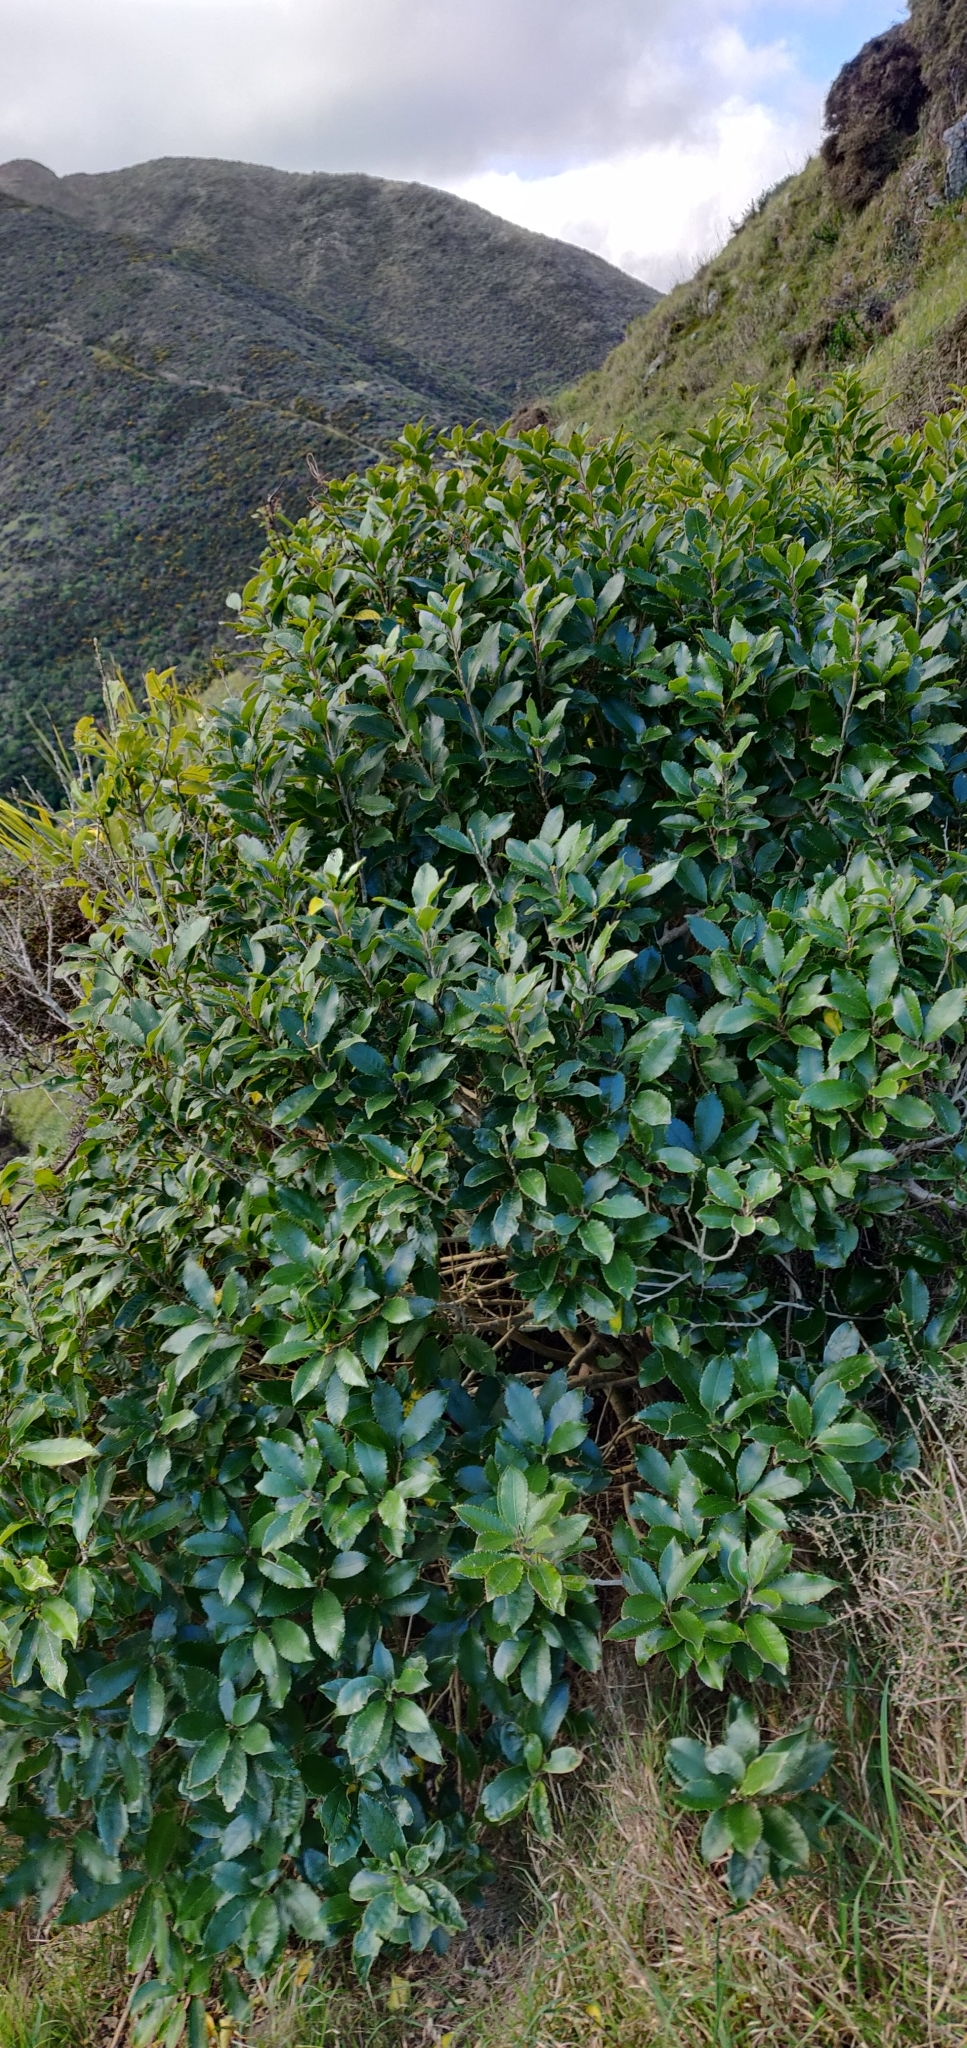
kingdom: Plantae
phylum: Tracheophyta
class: Magnoliopsida
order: Malpighiales
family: Violaceae
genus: Melicytus
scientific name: Melicytus ramiflorus
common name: Mahoe
